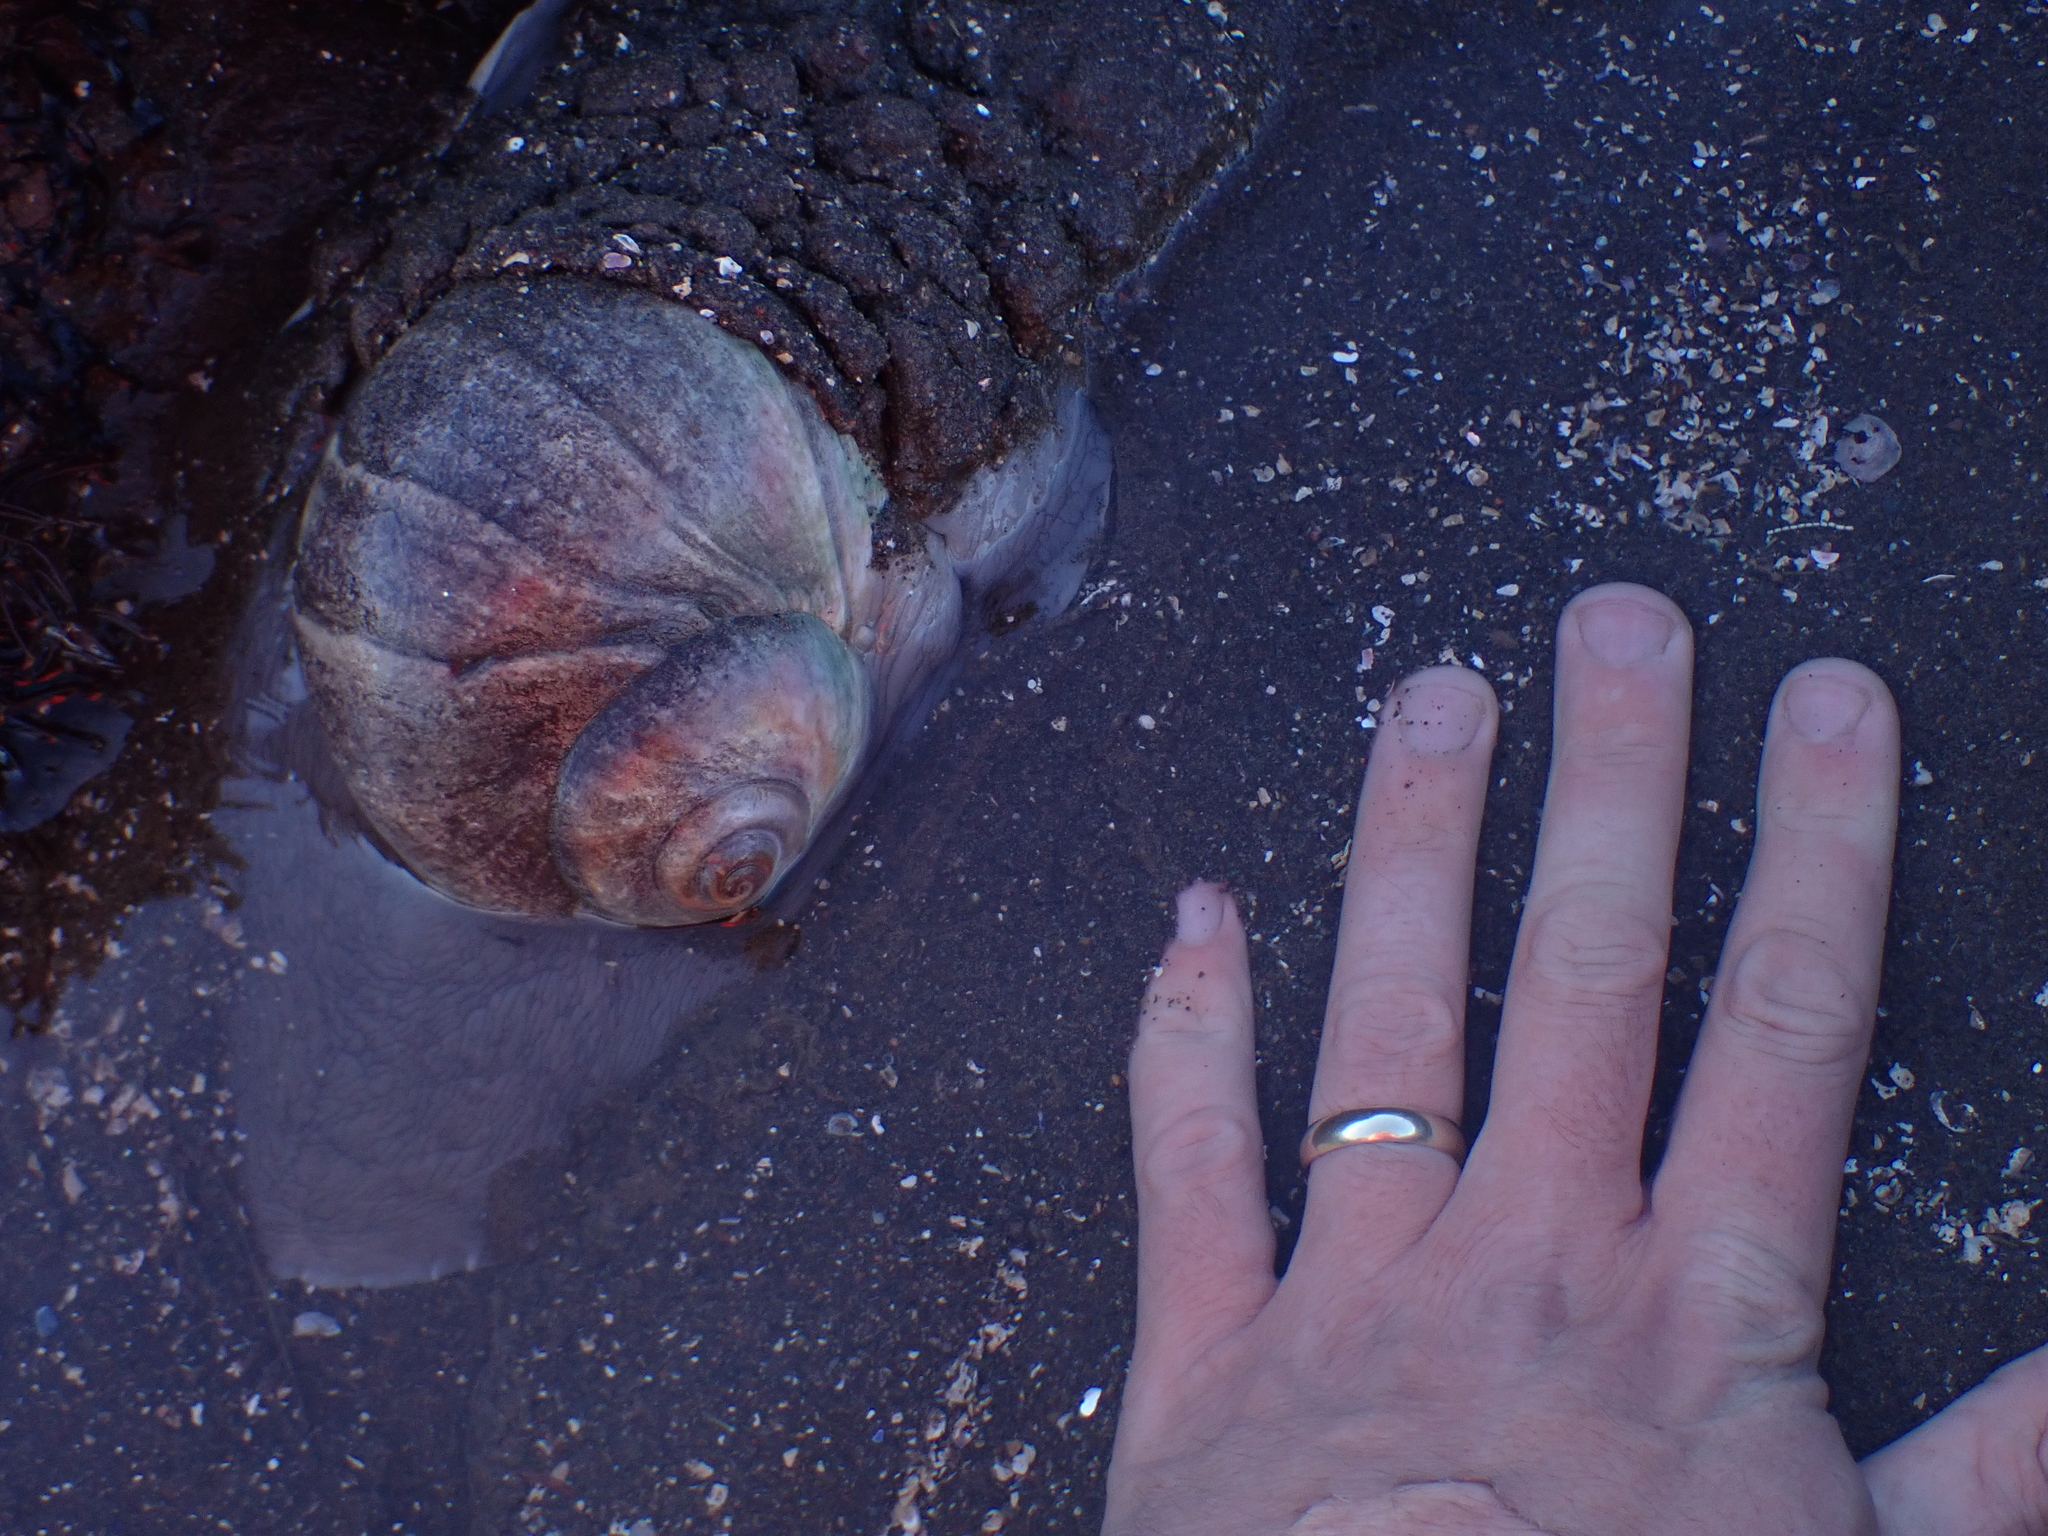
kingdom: Animalia
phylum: Mollusca
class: Gastropoda
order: Littorinimorpha
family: Naticidae
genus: Euspira
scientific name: Euspira heros
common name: Common northern moonsnail
